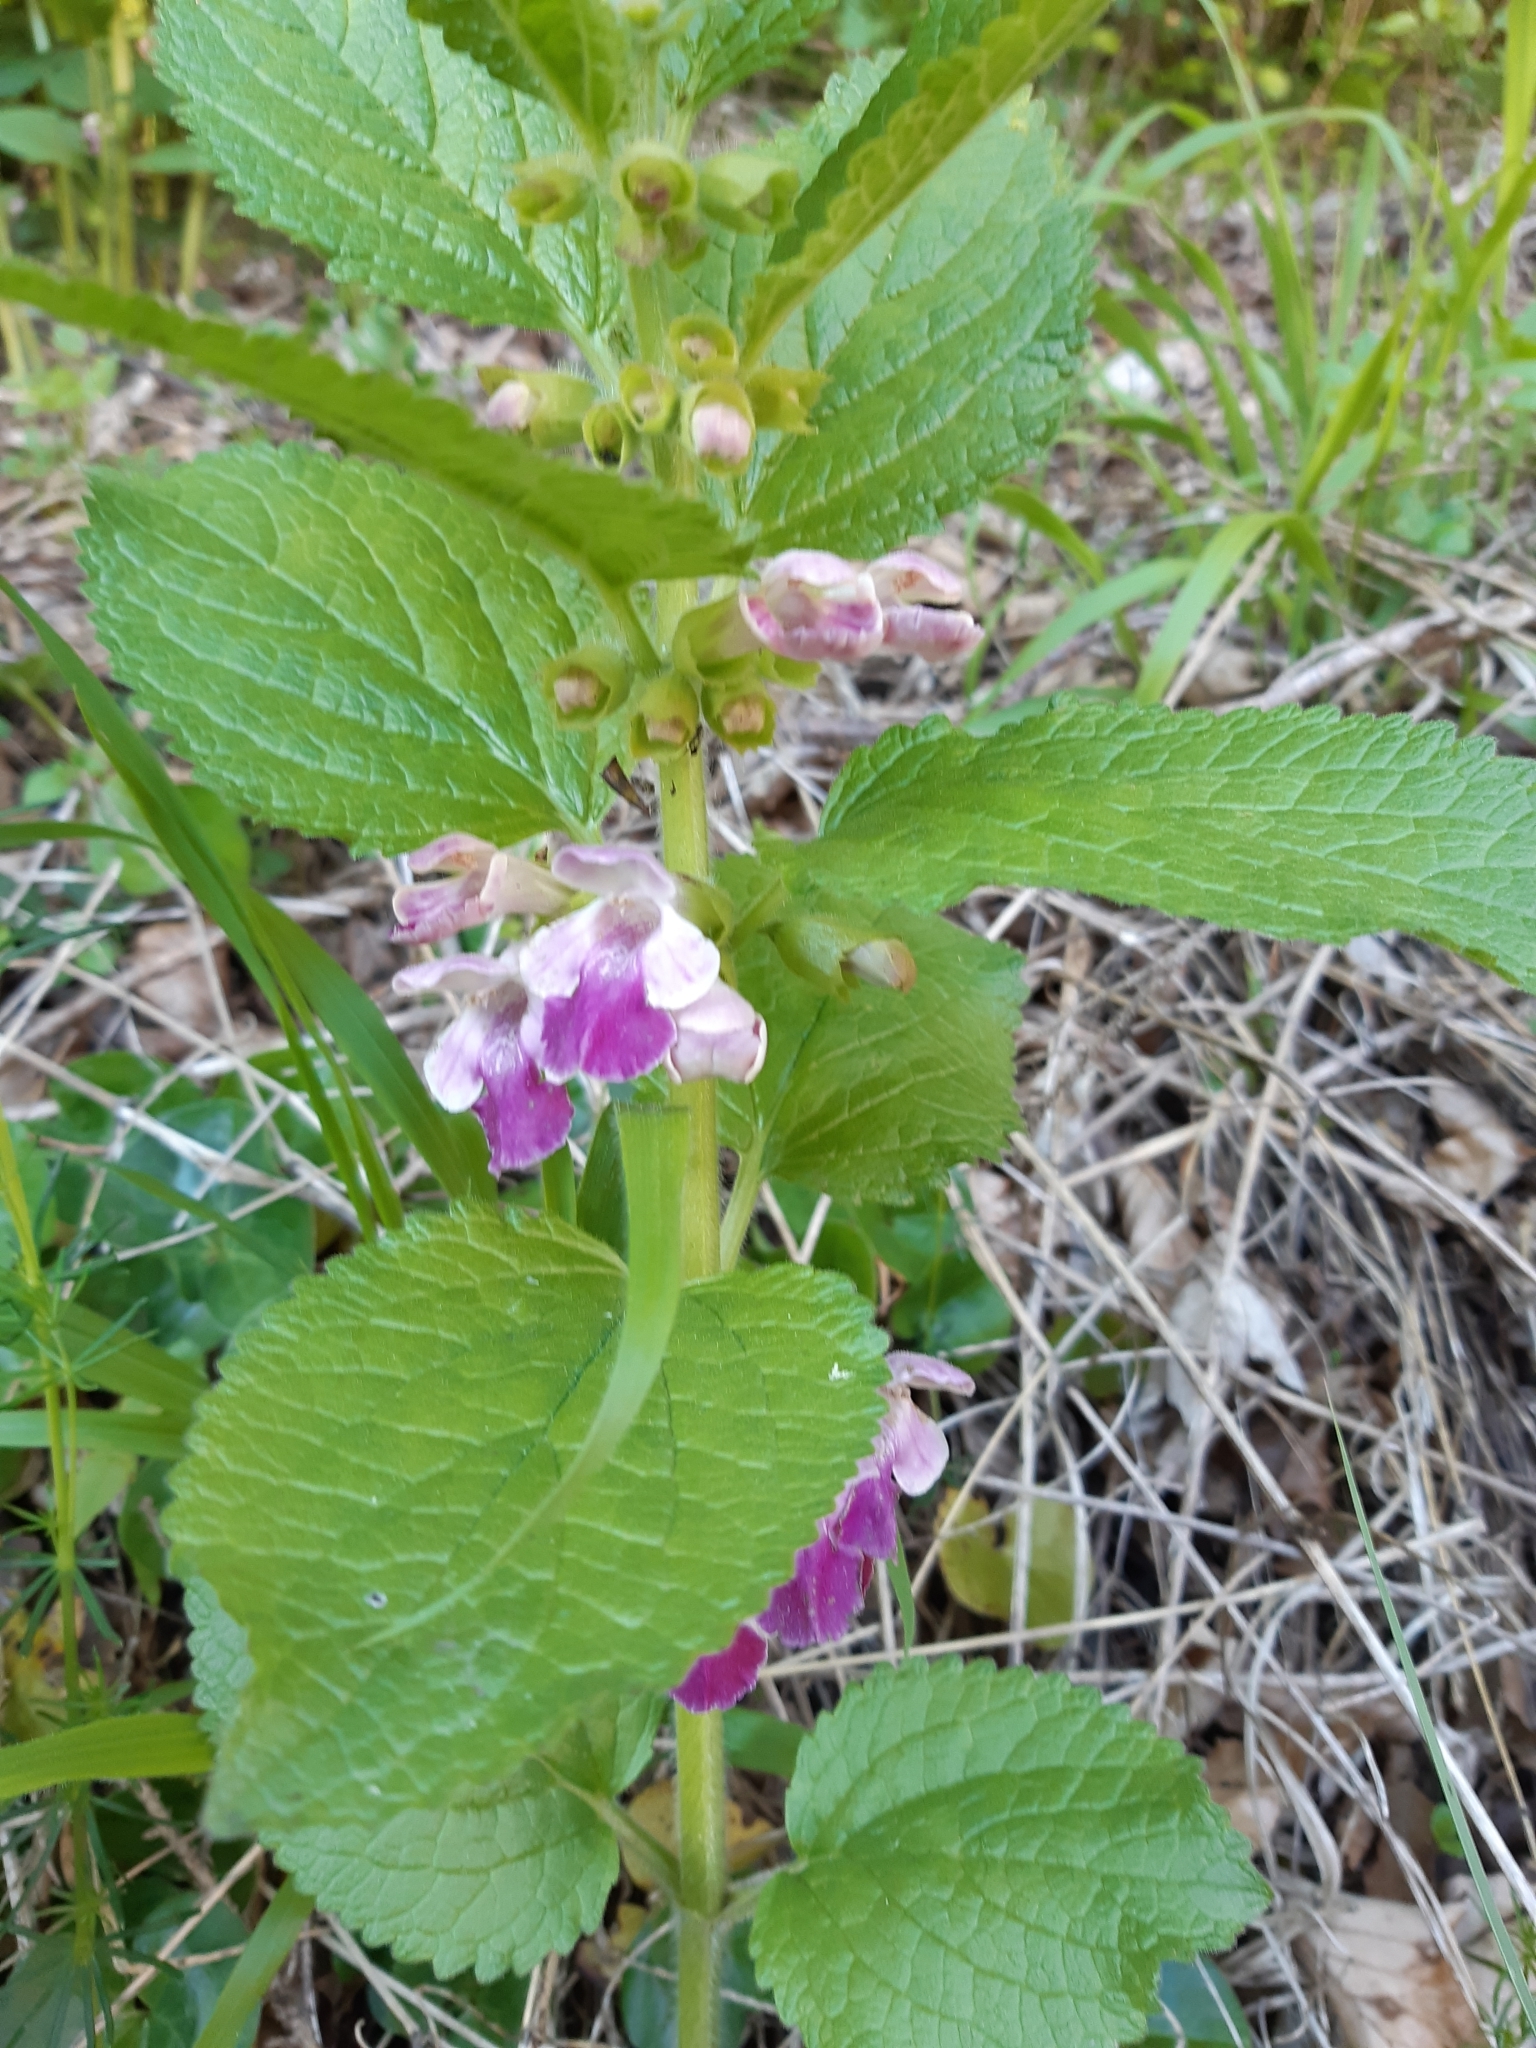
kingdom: Plantae
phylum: Tracheophyta
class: Magnoliopsida
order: Lamiales
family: Lamiaceae
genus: Melittis
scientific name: Melittis melissophyllum
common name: Bastard balm
